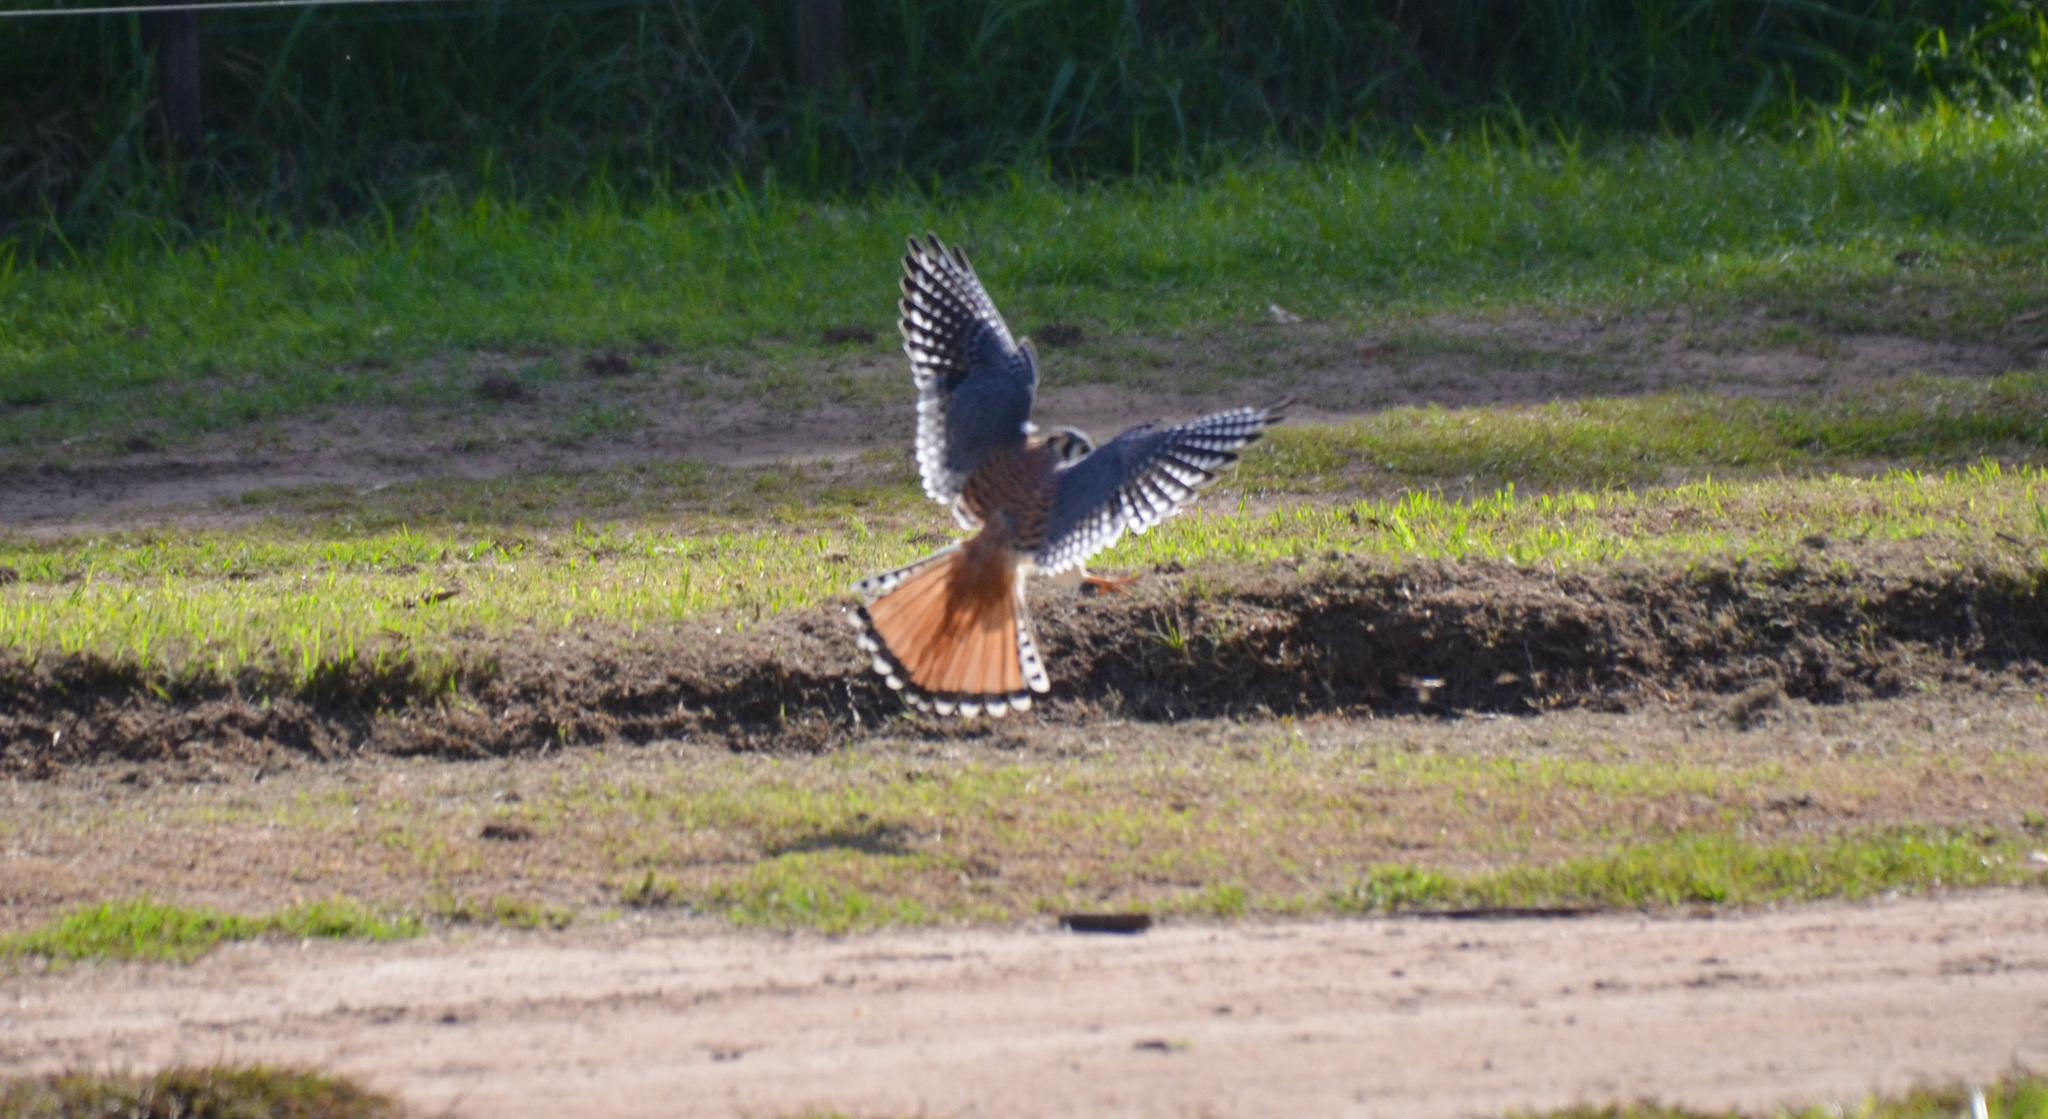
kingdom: Animalia
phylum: Chordata
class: Aves
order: Falconiformes
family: Falconidae
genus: Falco
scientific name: Falco sparverius
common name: American kestrel
